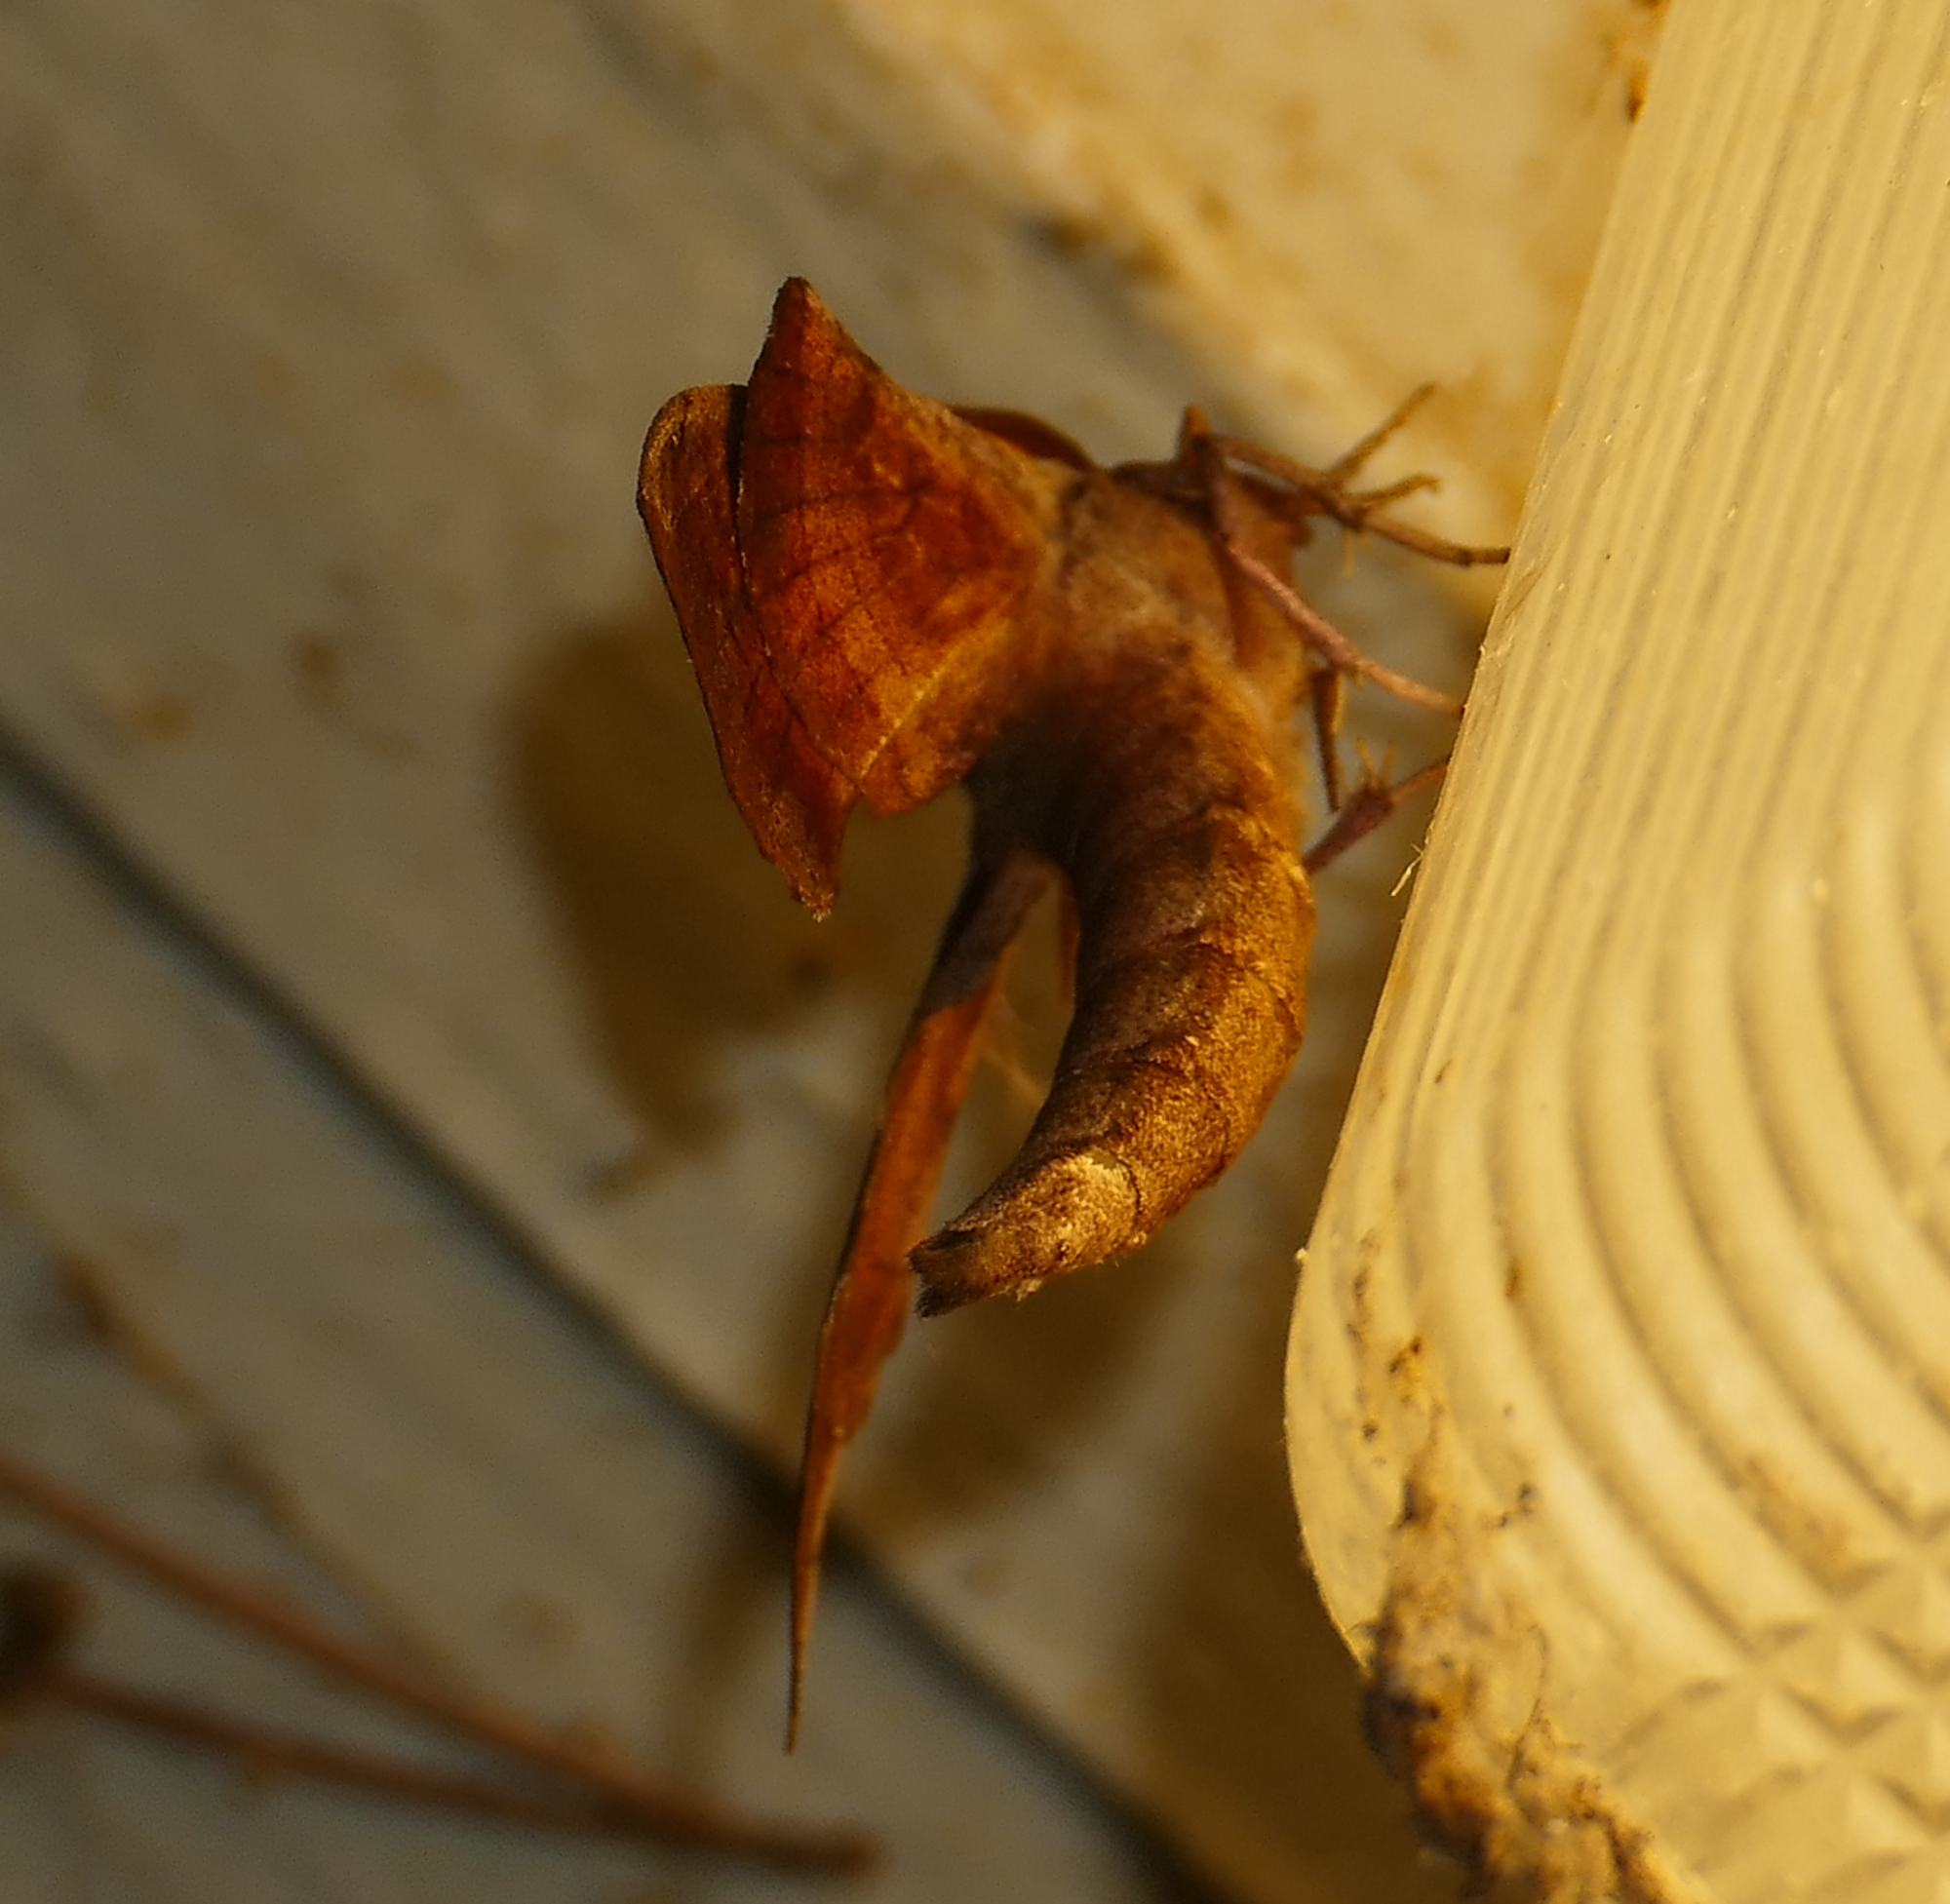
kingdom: Animalia
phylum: Arthropoda
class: Insecta
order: Lepidoptera
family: Sphingidae
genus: Amorpha
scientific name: Amorpha juglandis
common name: Walnut sphinx
